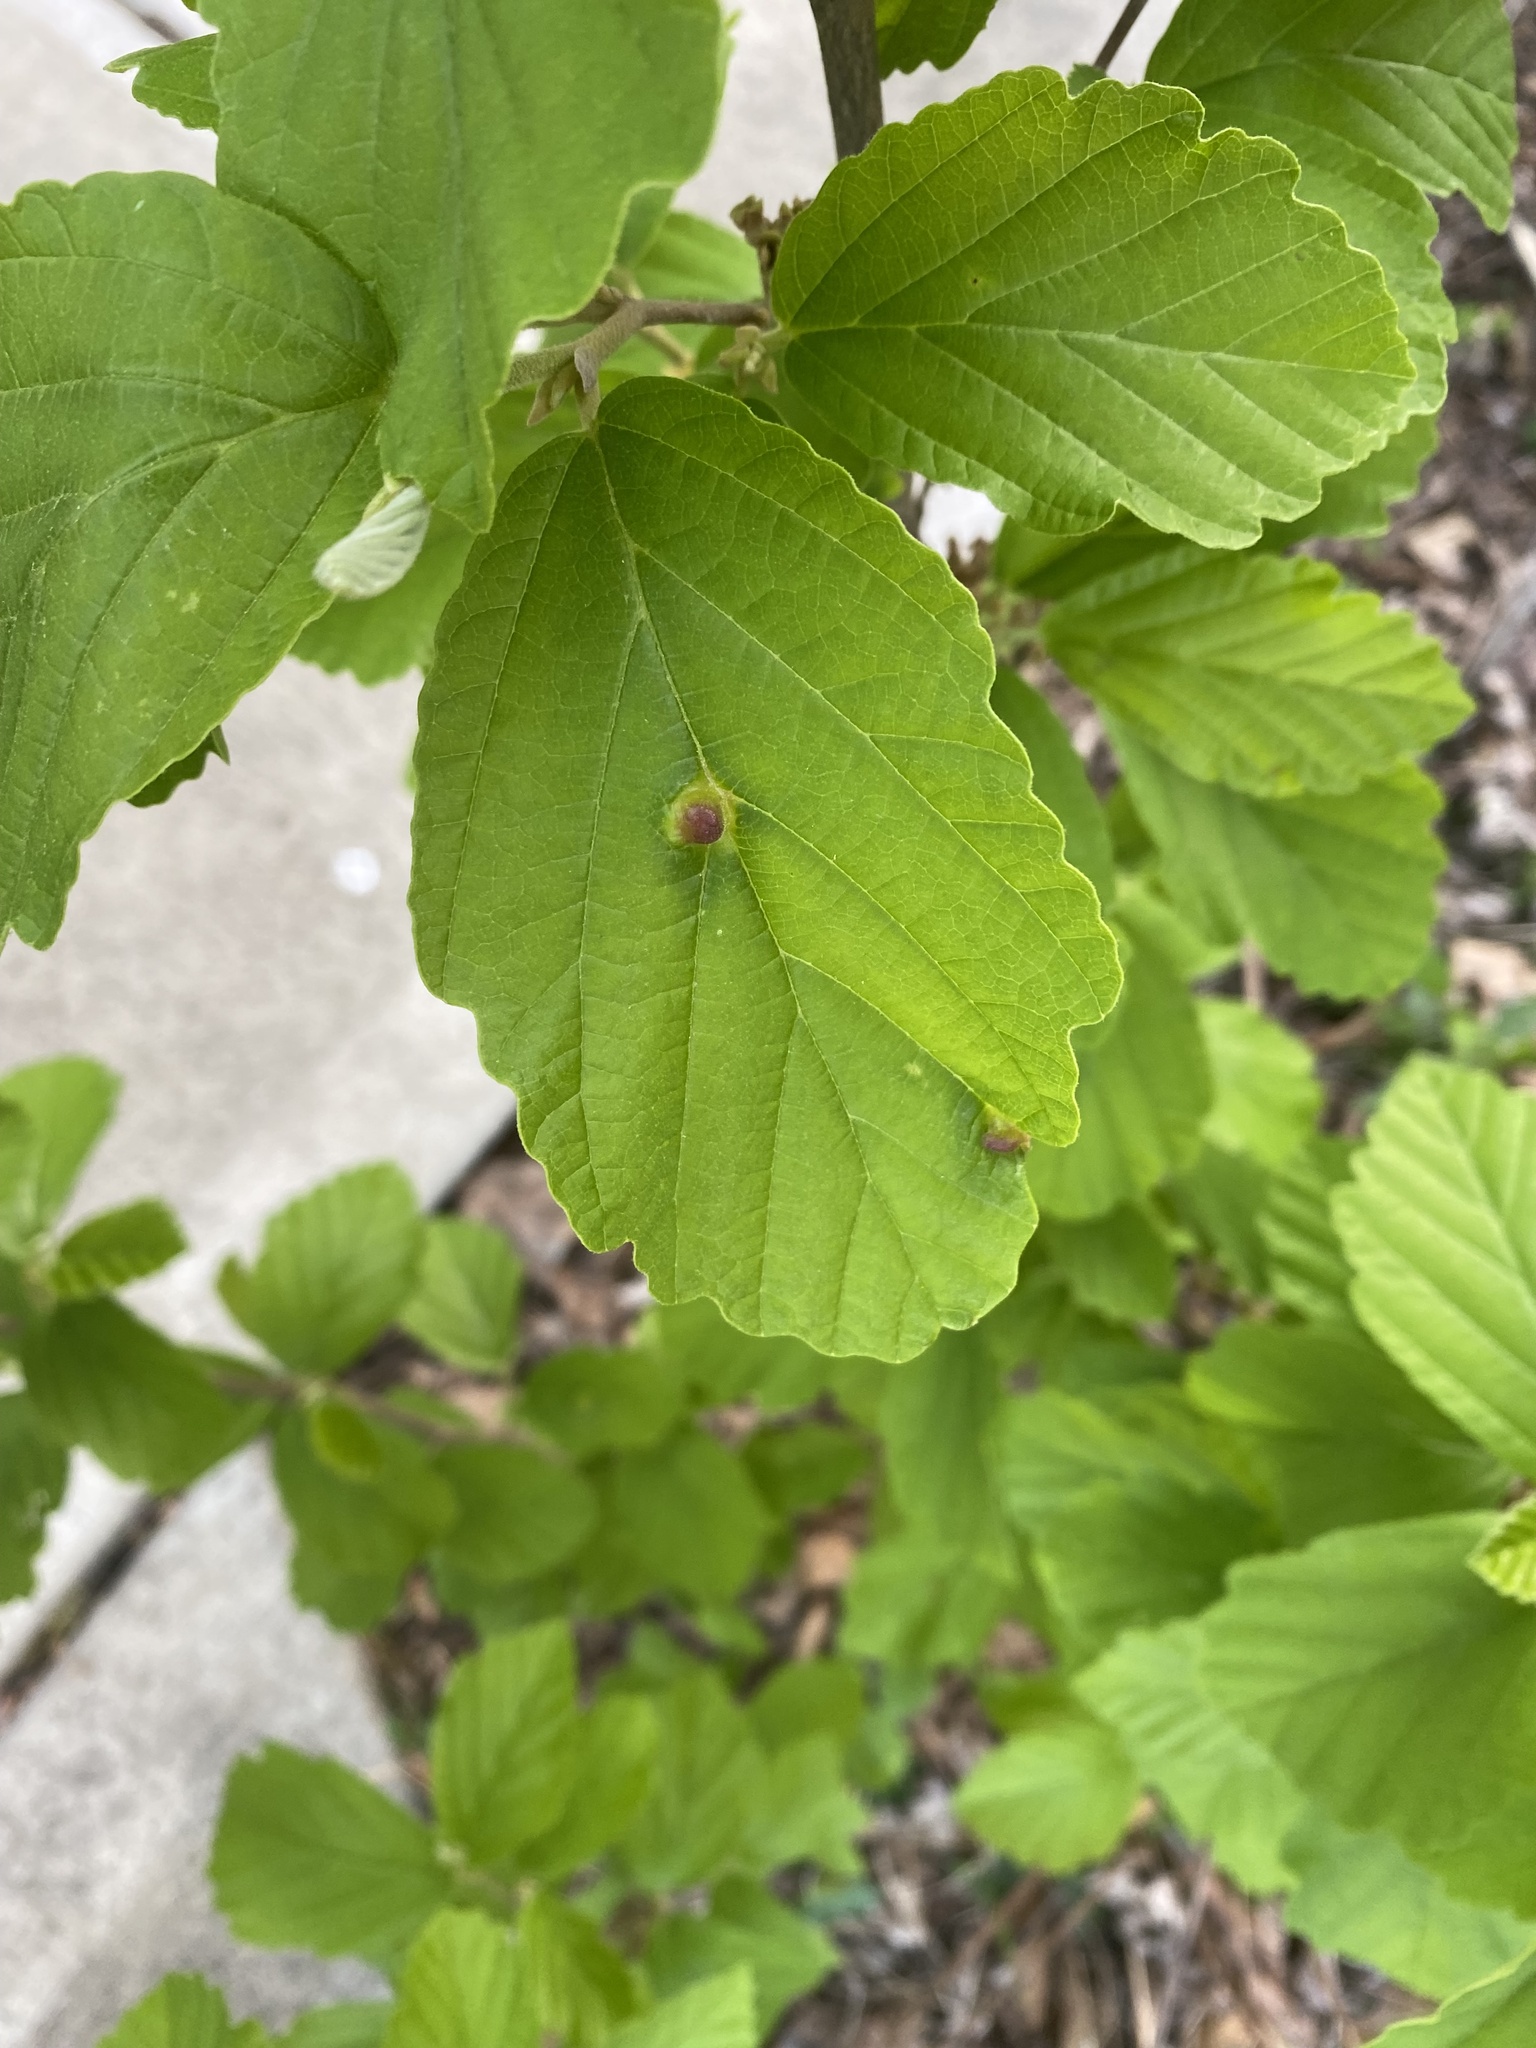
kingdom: Animalia
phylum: Arthropoda
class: Insecta
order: Hemiptera
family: Aphididae
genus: Hormaphis
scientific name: Hormaphis hamamelidis
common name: Witch-hazel cone gall aphid
